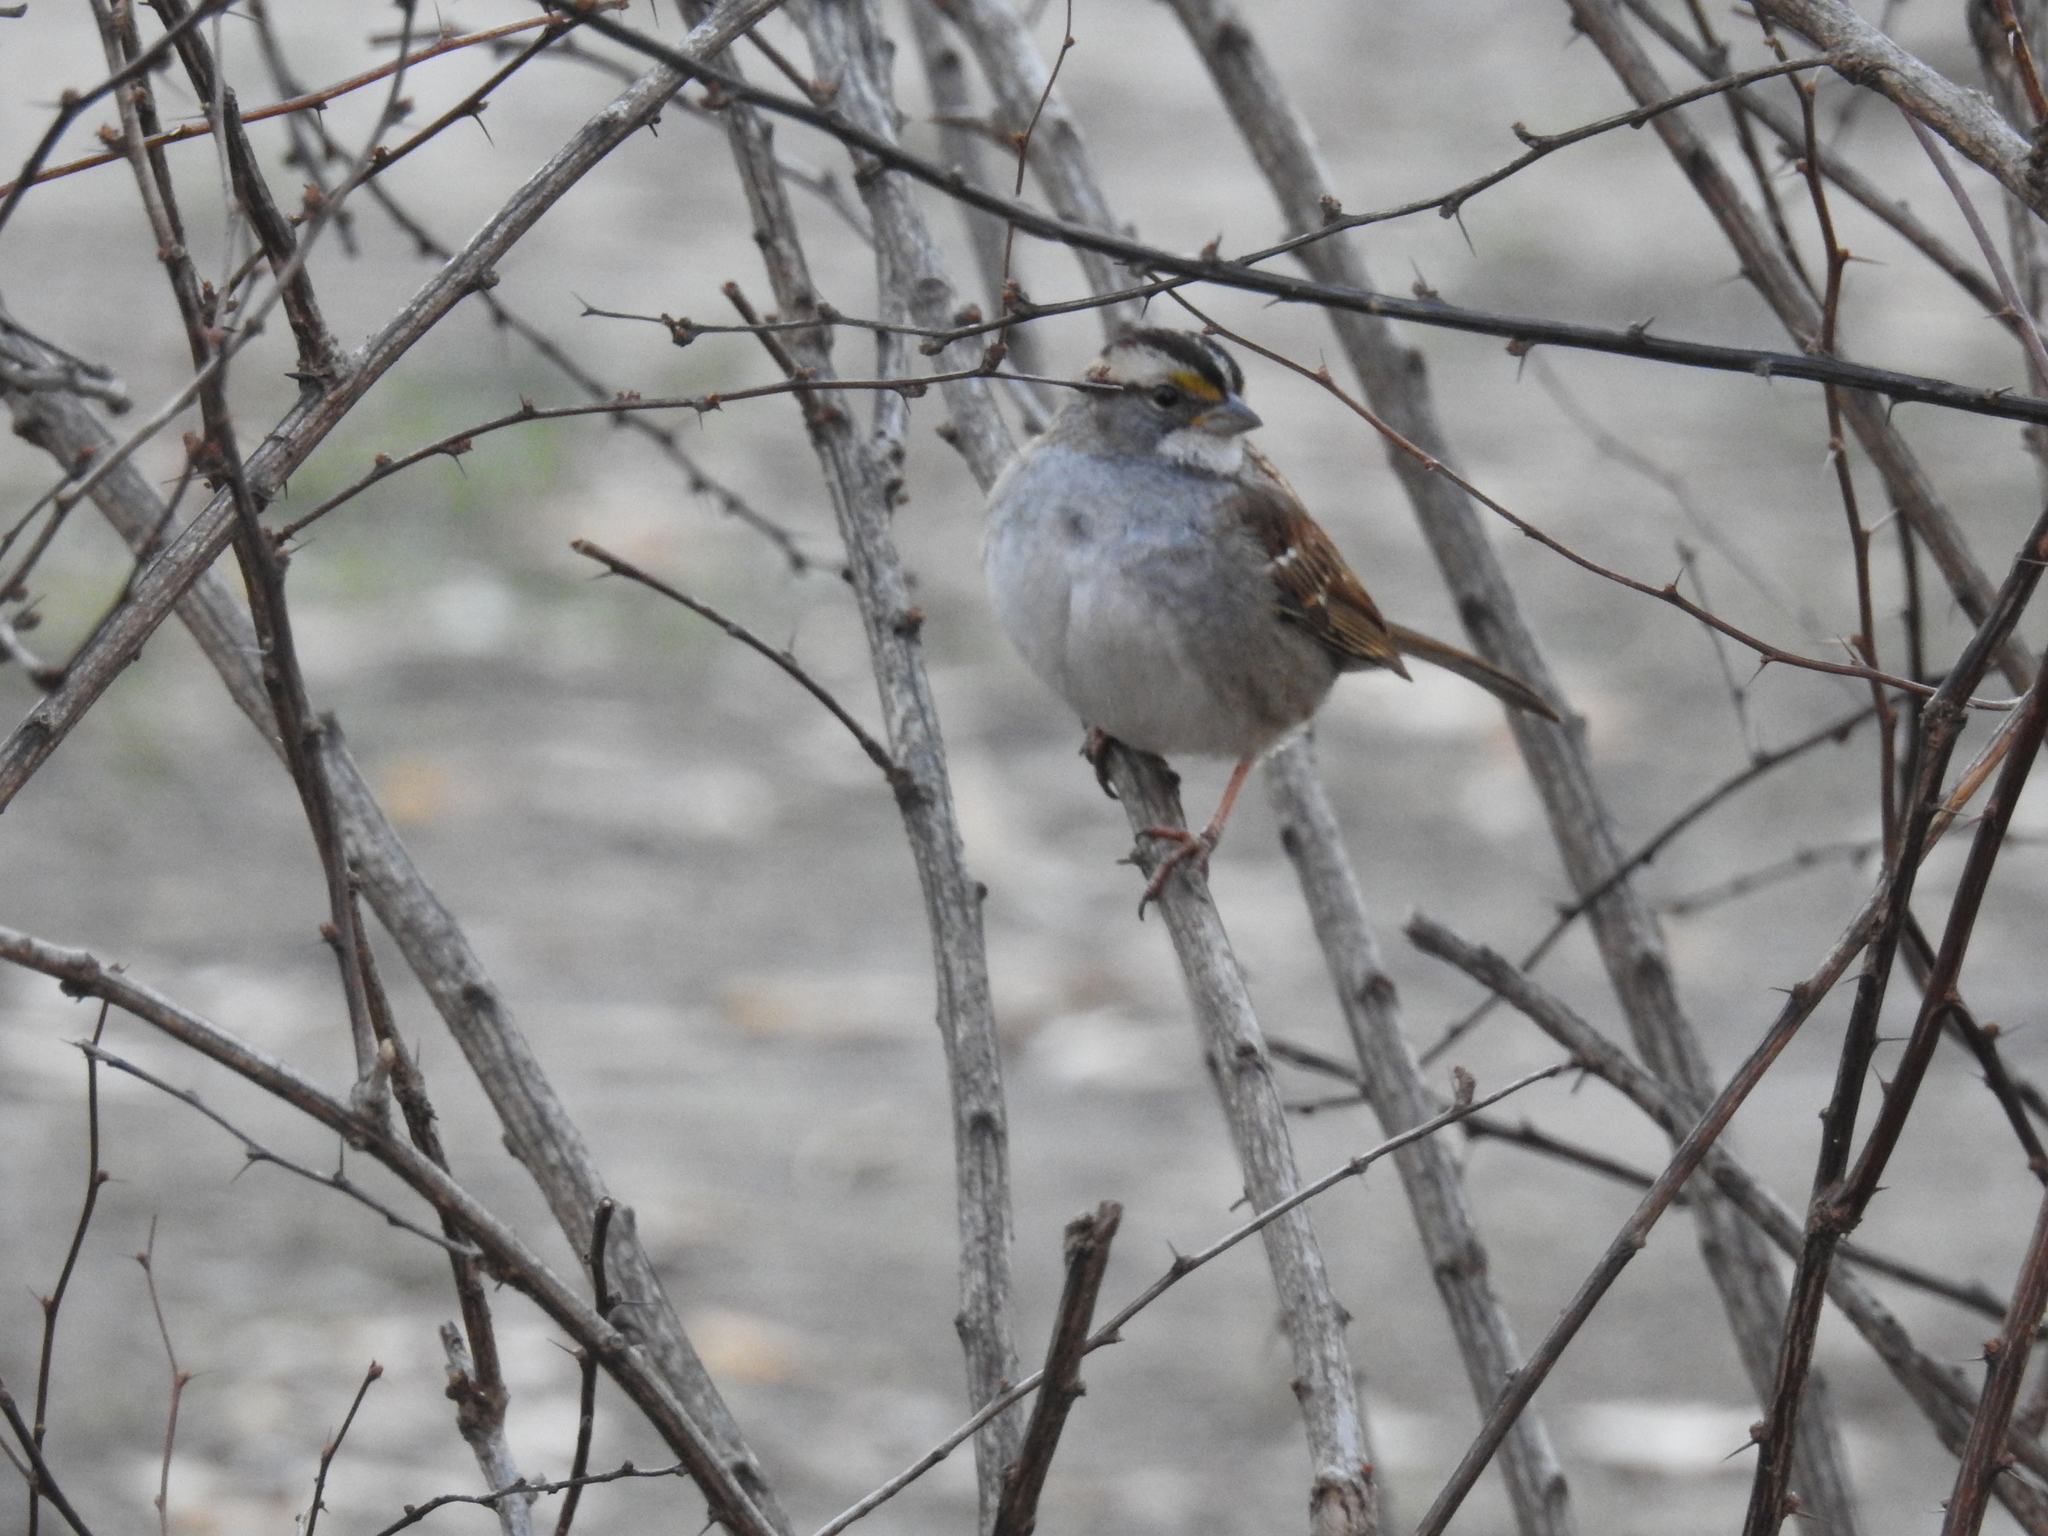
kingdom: Animalia
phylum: Chordata
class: Aves
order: Passeriformes
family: Passerellidae
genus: Zonotrichia
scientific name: Zonotrichia albicollis
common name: White-throated sparrow
